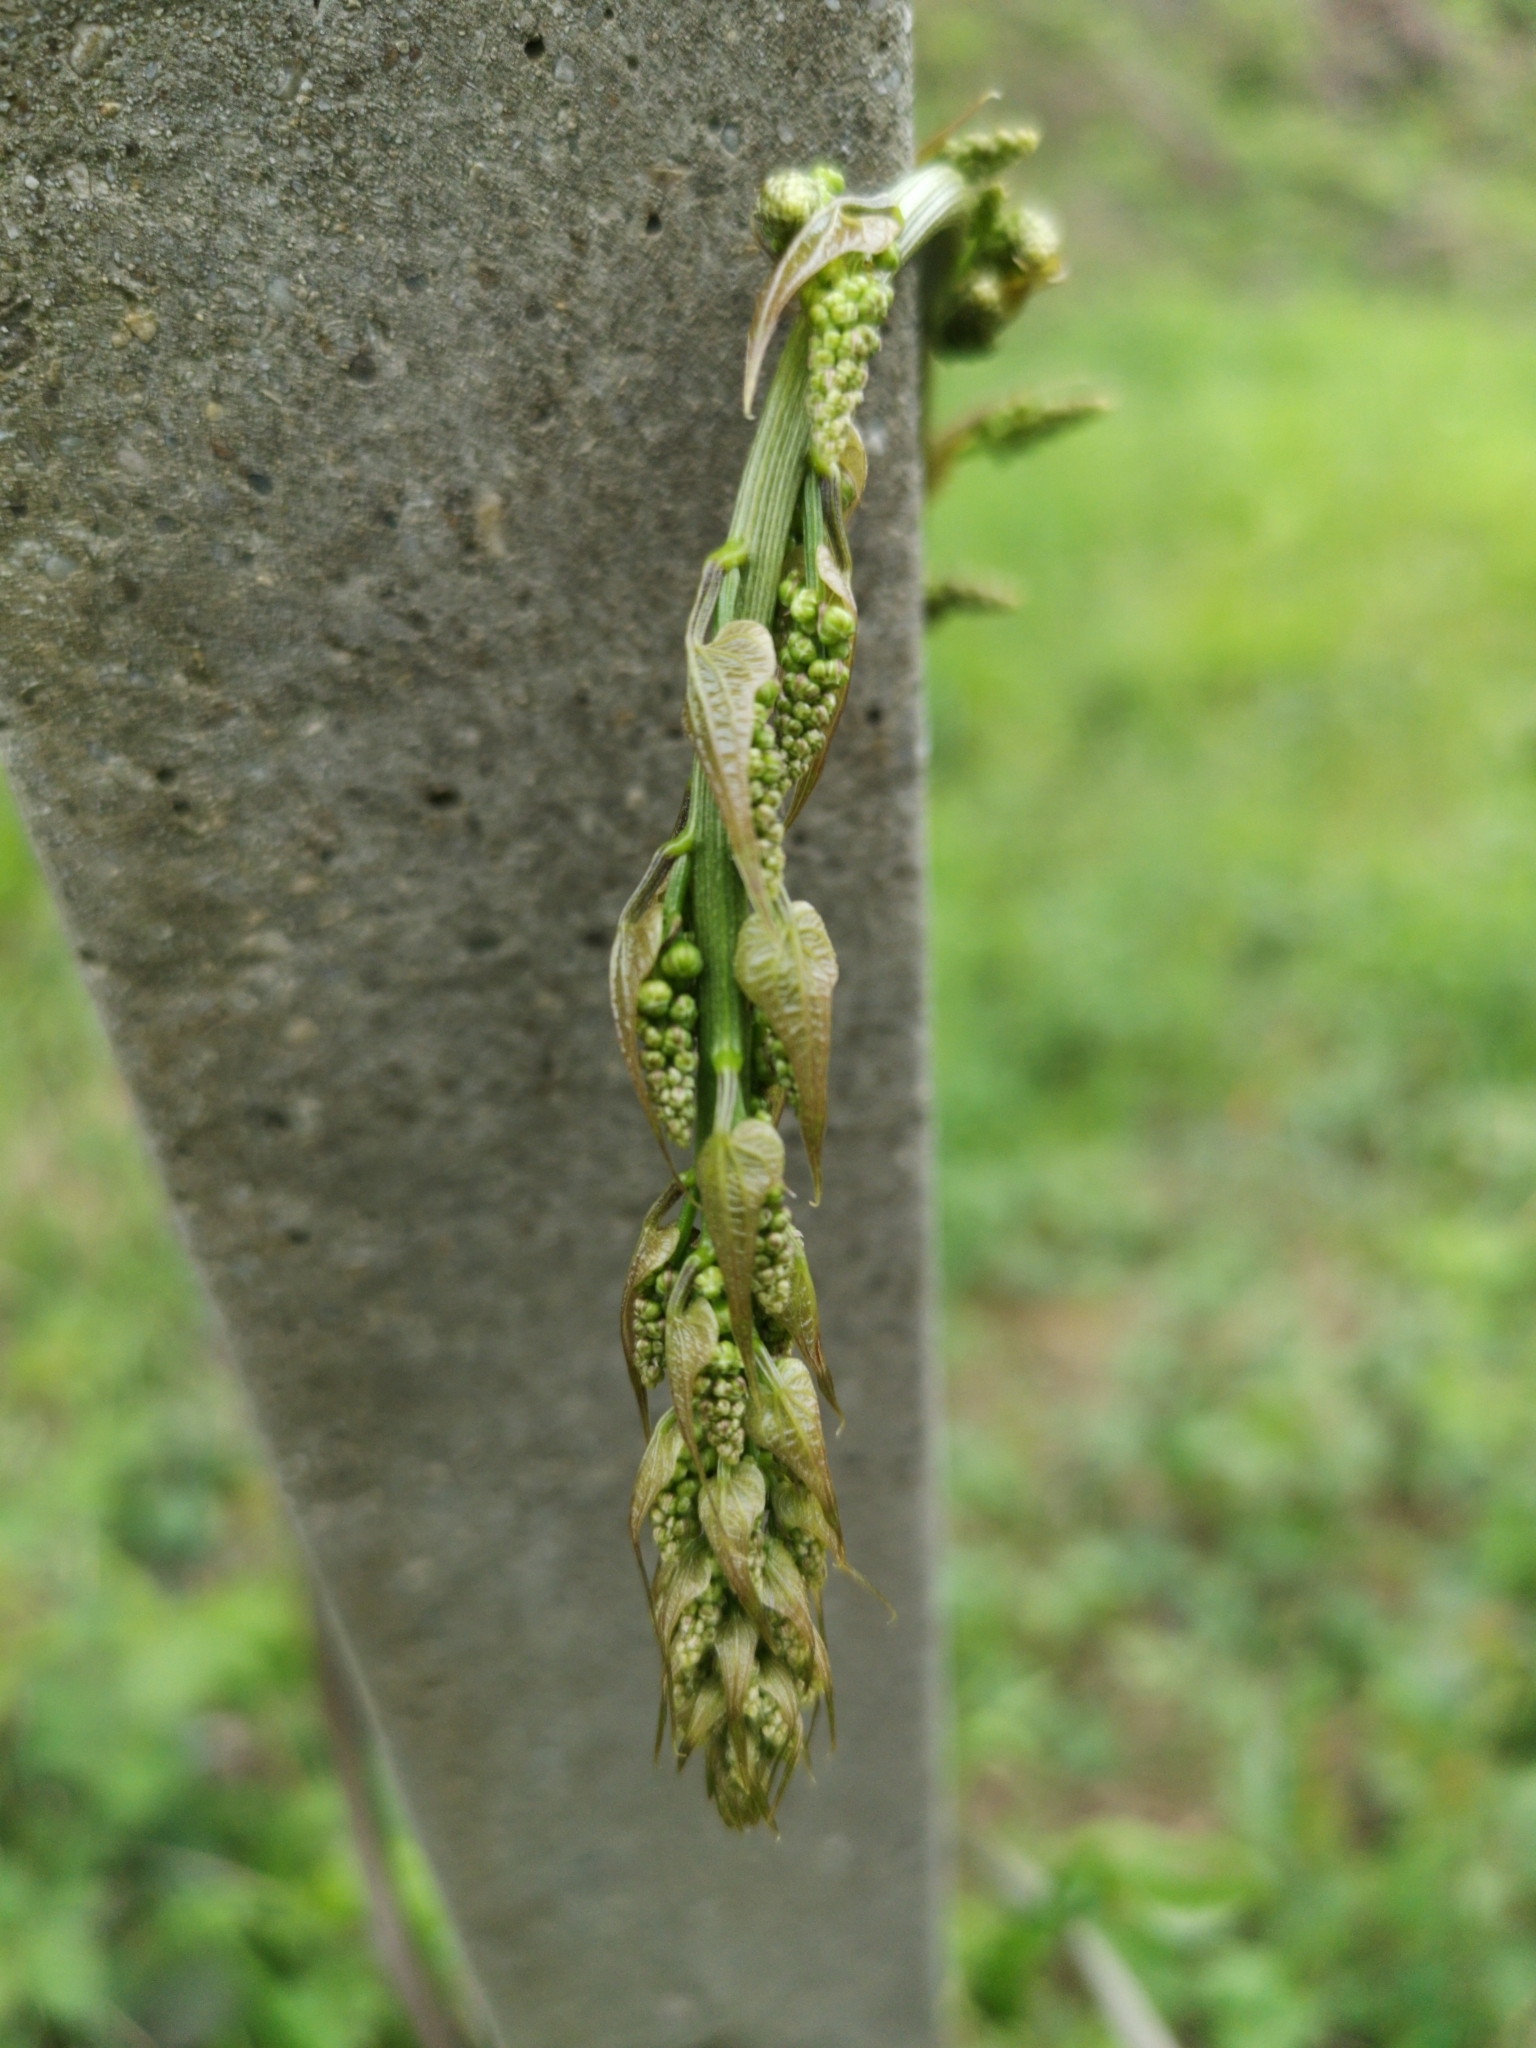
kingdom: Plantae
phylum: Tracheophyta
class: Liliopsida
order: Dioscoreales
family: Dioscoreaceae
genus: Dioscorea
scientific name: Dioscorea communis
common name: Black-bindweed
